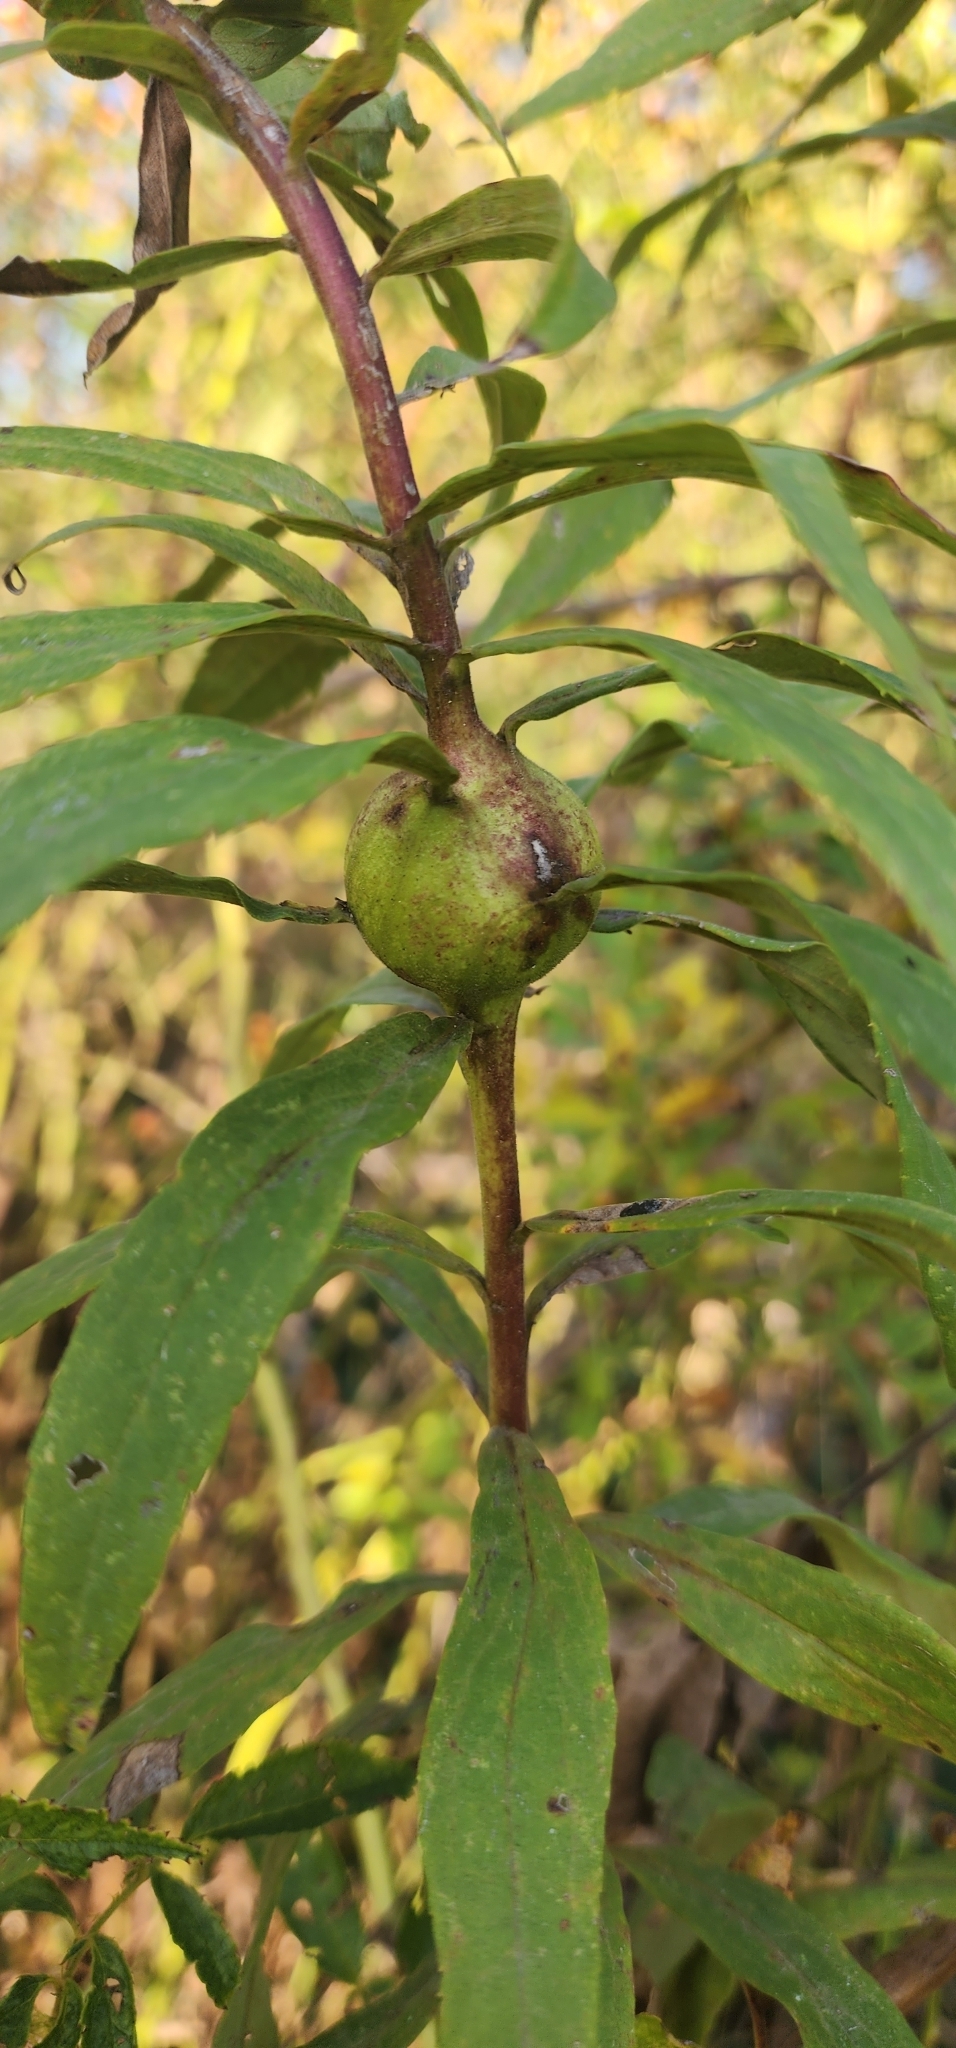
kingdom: Animalia
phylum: Arthropoda
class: Insecta
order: Diptera
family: Tephritidae
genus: Eurosta
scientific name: Eurosta solidaginis
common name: Goldenrod gall fly
